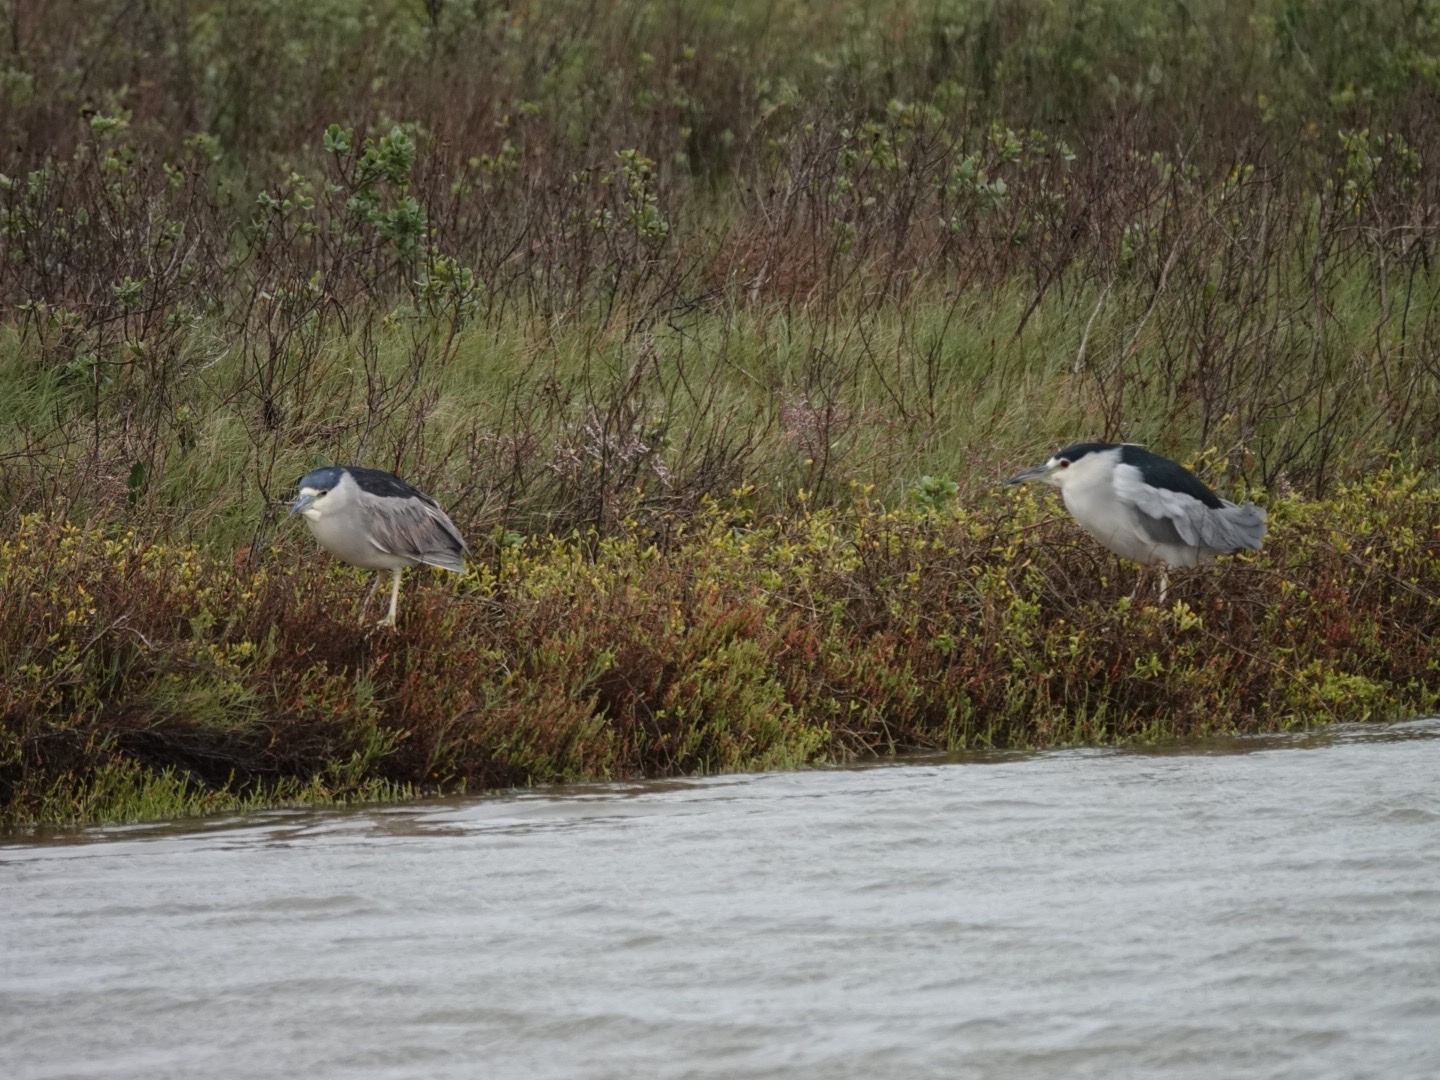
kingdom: Animalia
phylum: Chordata
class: Aves
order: Pelecaniformes
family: Ardeidae
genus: Nycticorax
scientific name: Nycticorax nycticorax
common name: Black-crowned night heron
